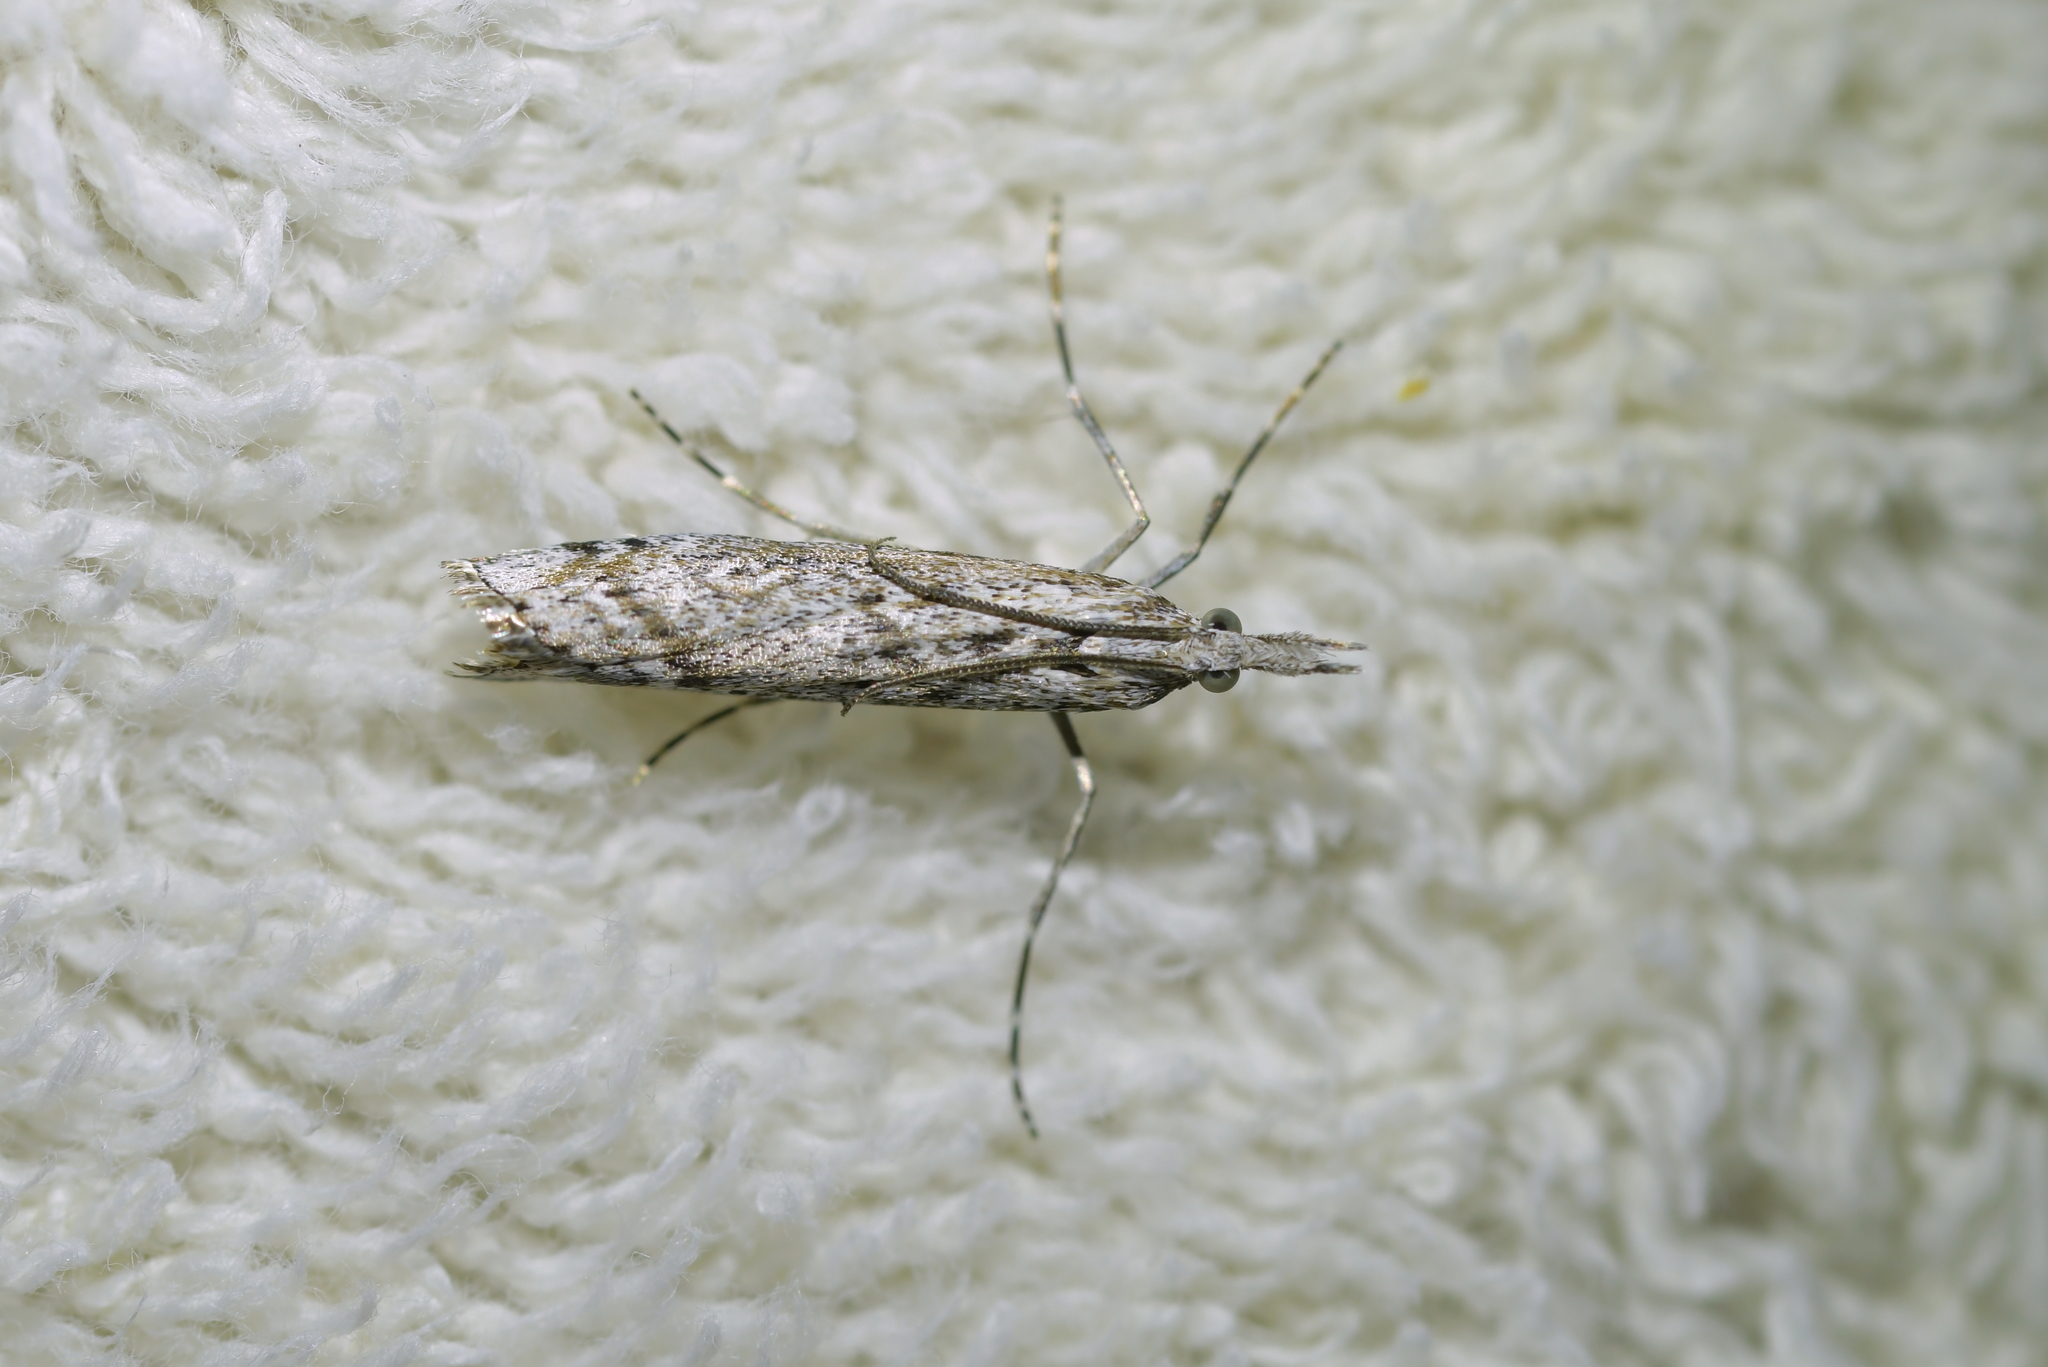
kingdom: Animalia
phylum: Arthropoda
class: Insecta
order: Lepidoptera
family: Crambidae
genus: Orocrambus
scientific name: Orocrambus cyclopicus
